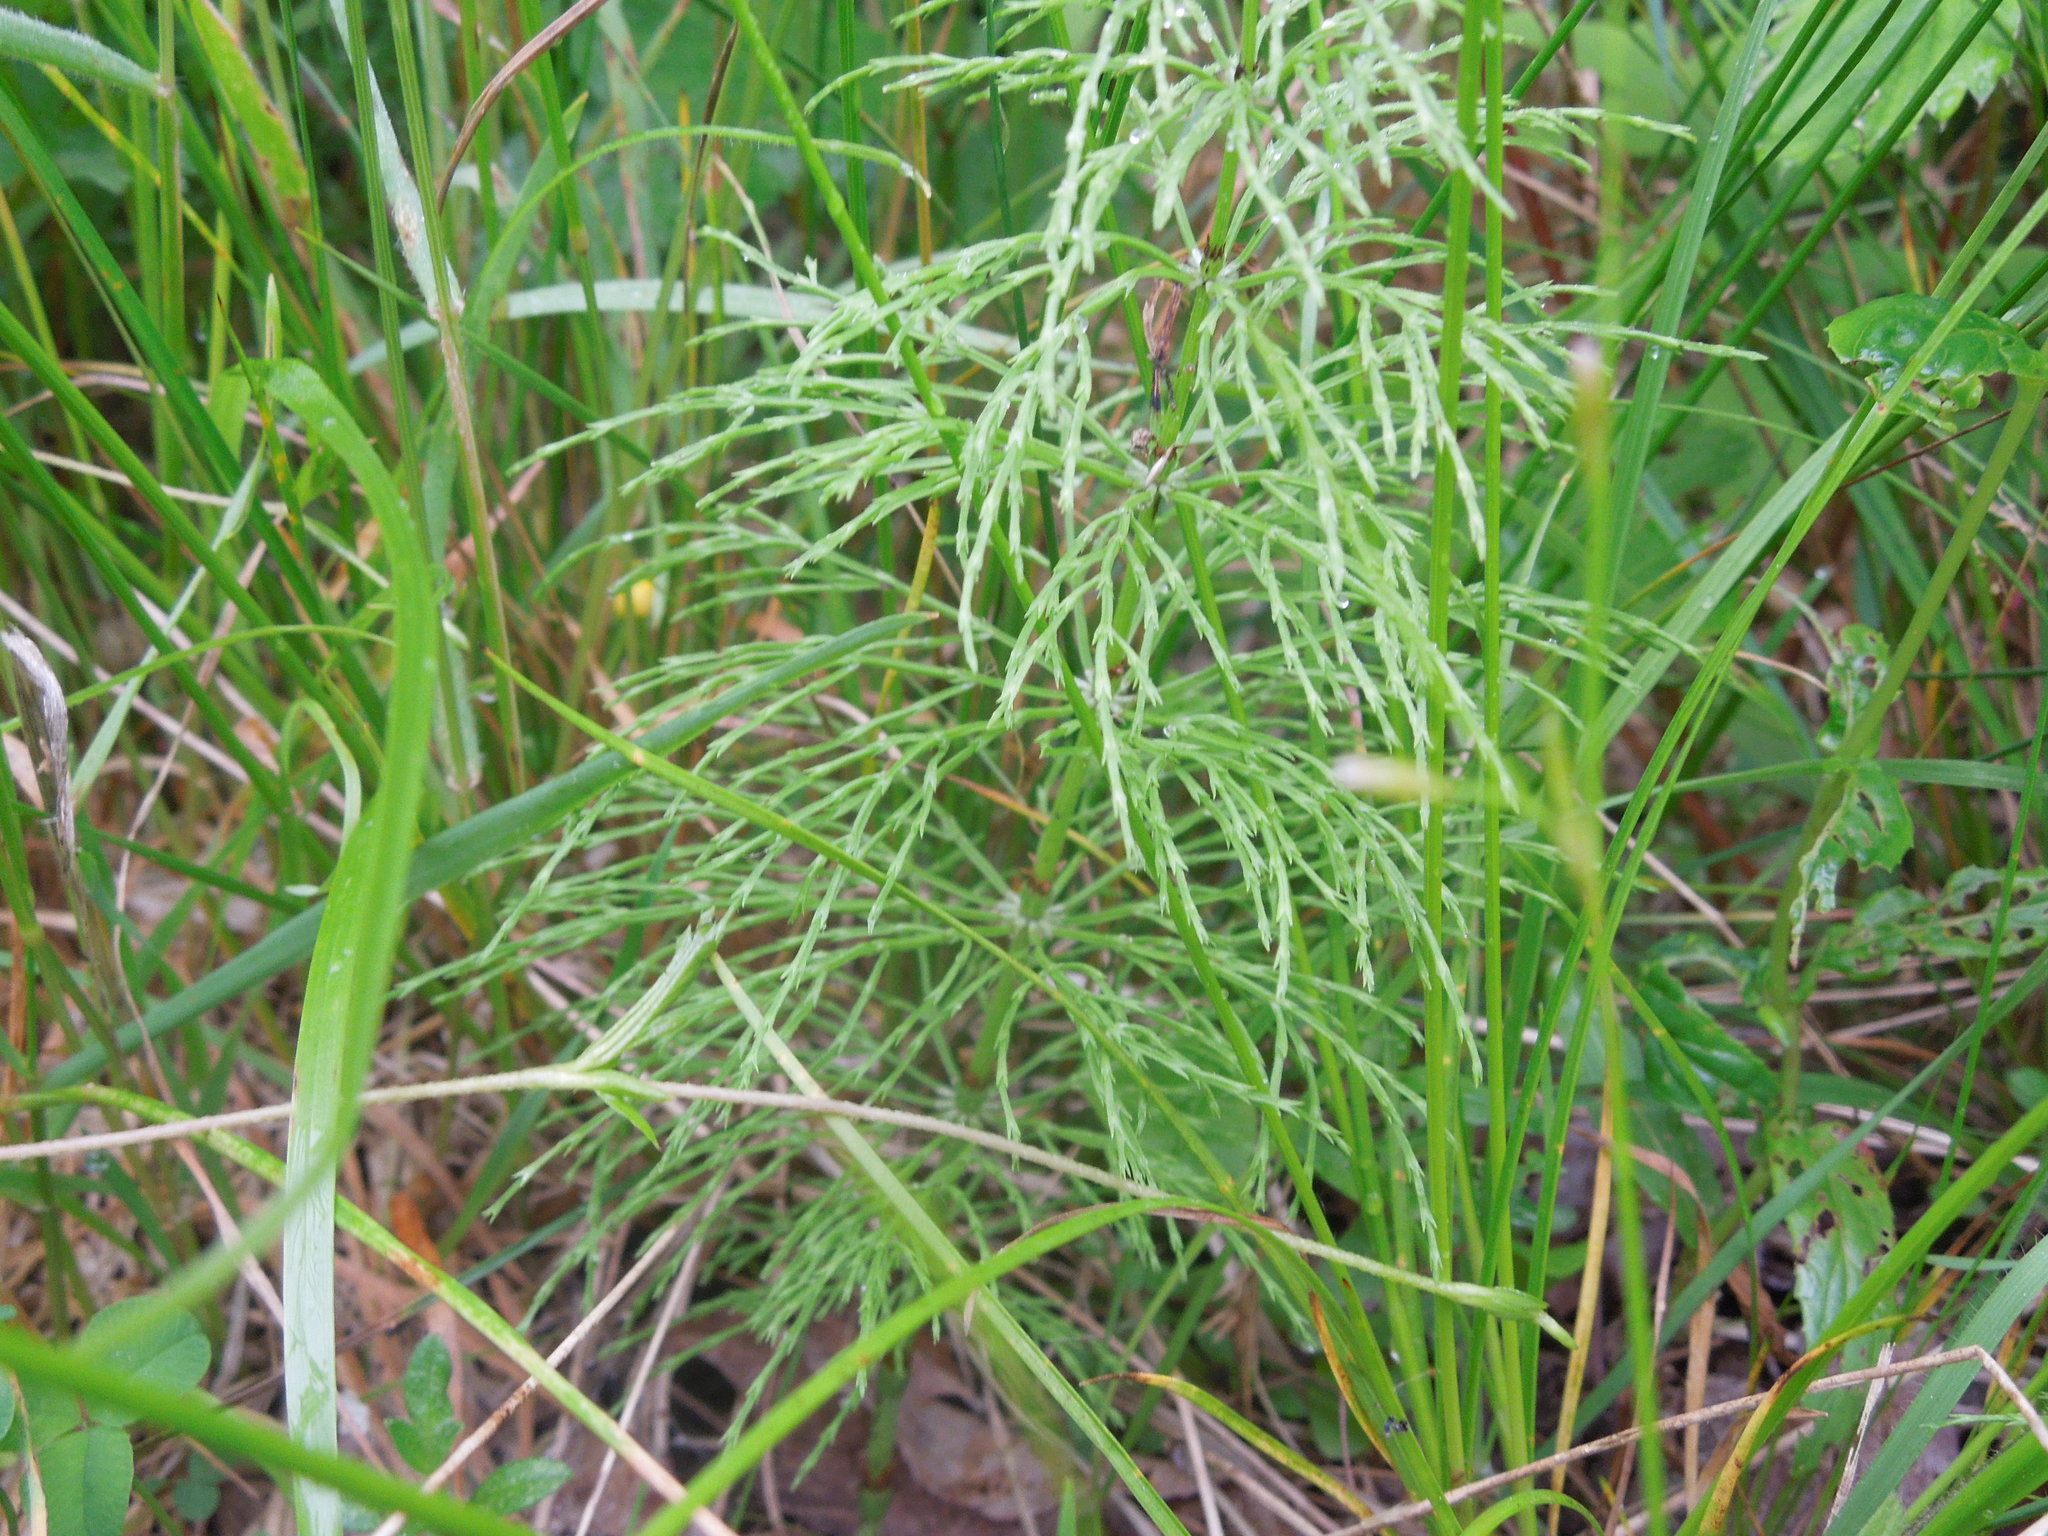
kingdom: Plantae
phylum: Tracheophyta
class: Polypodiopsida
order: Equisetales
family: Equisetaceae
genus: Equisetum
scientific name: Equisetum sylvaticum
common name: Wood horsetail
